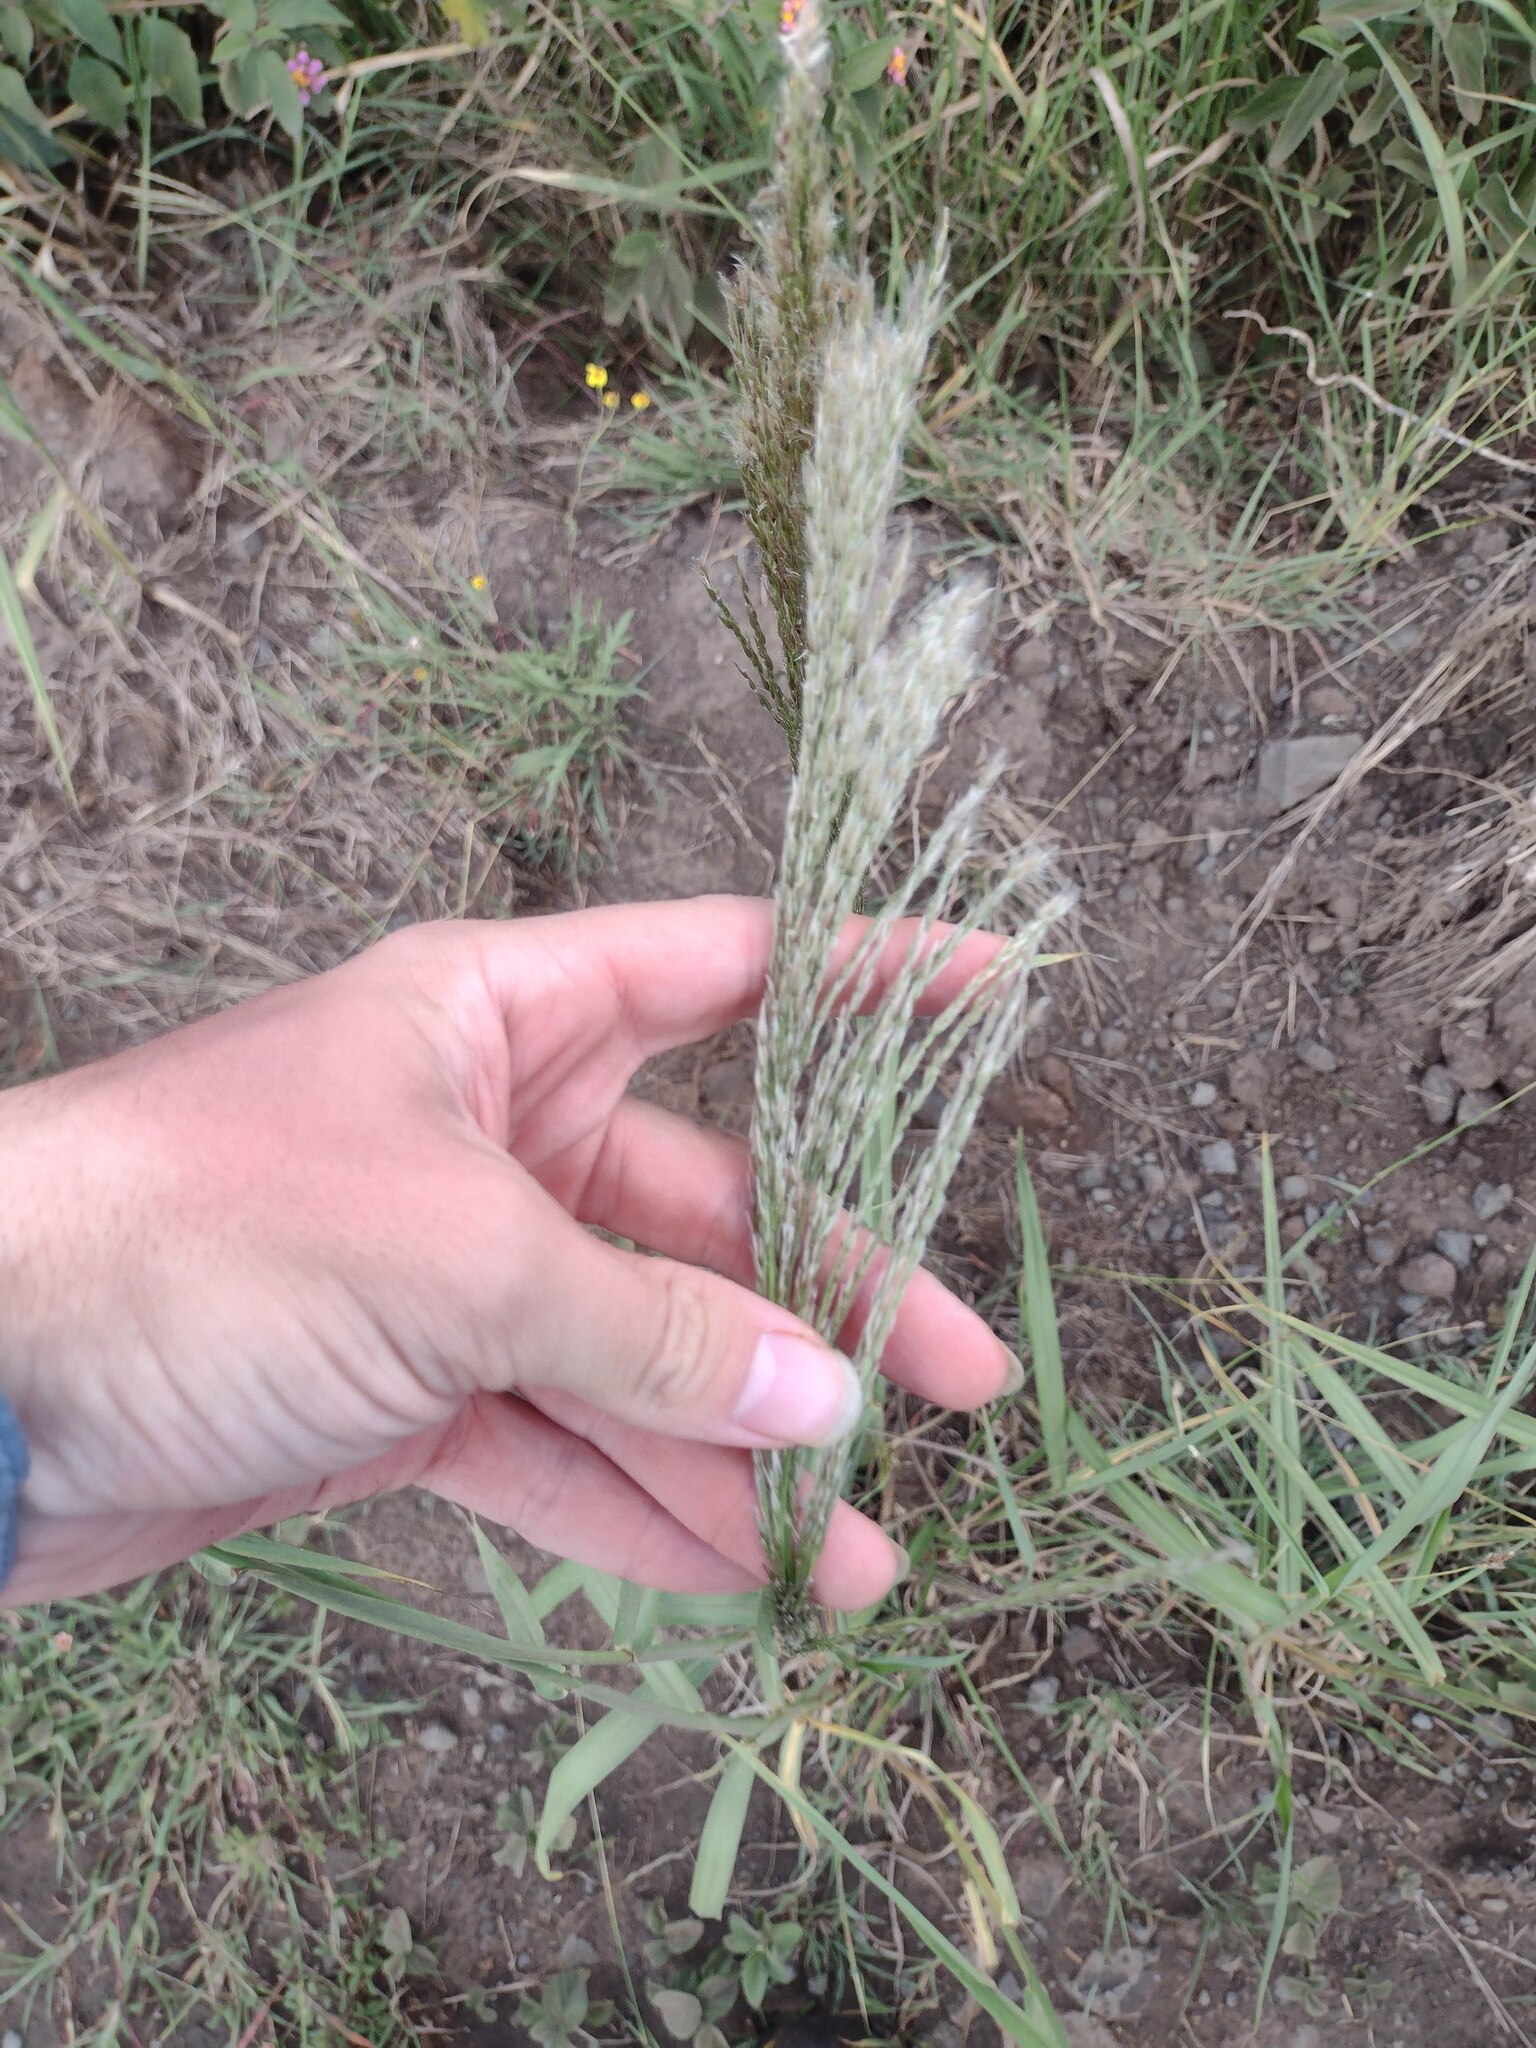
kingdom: Plantae
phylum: Tracheophyta
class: Liliopsida
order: Poales
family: Poaceae
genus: Digitaria
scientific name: Digitaria insularis
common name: Sourgrass
